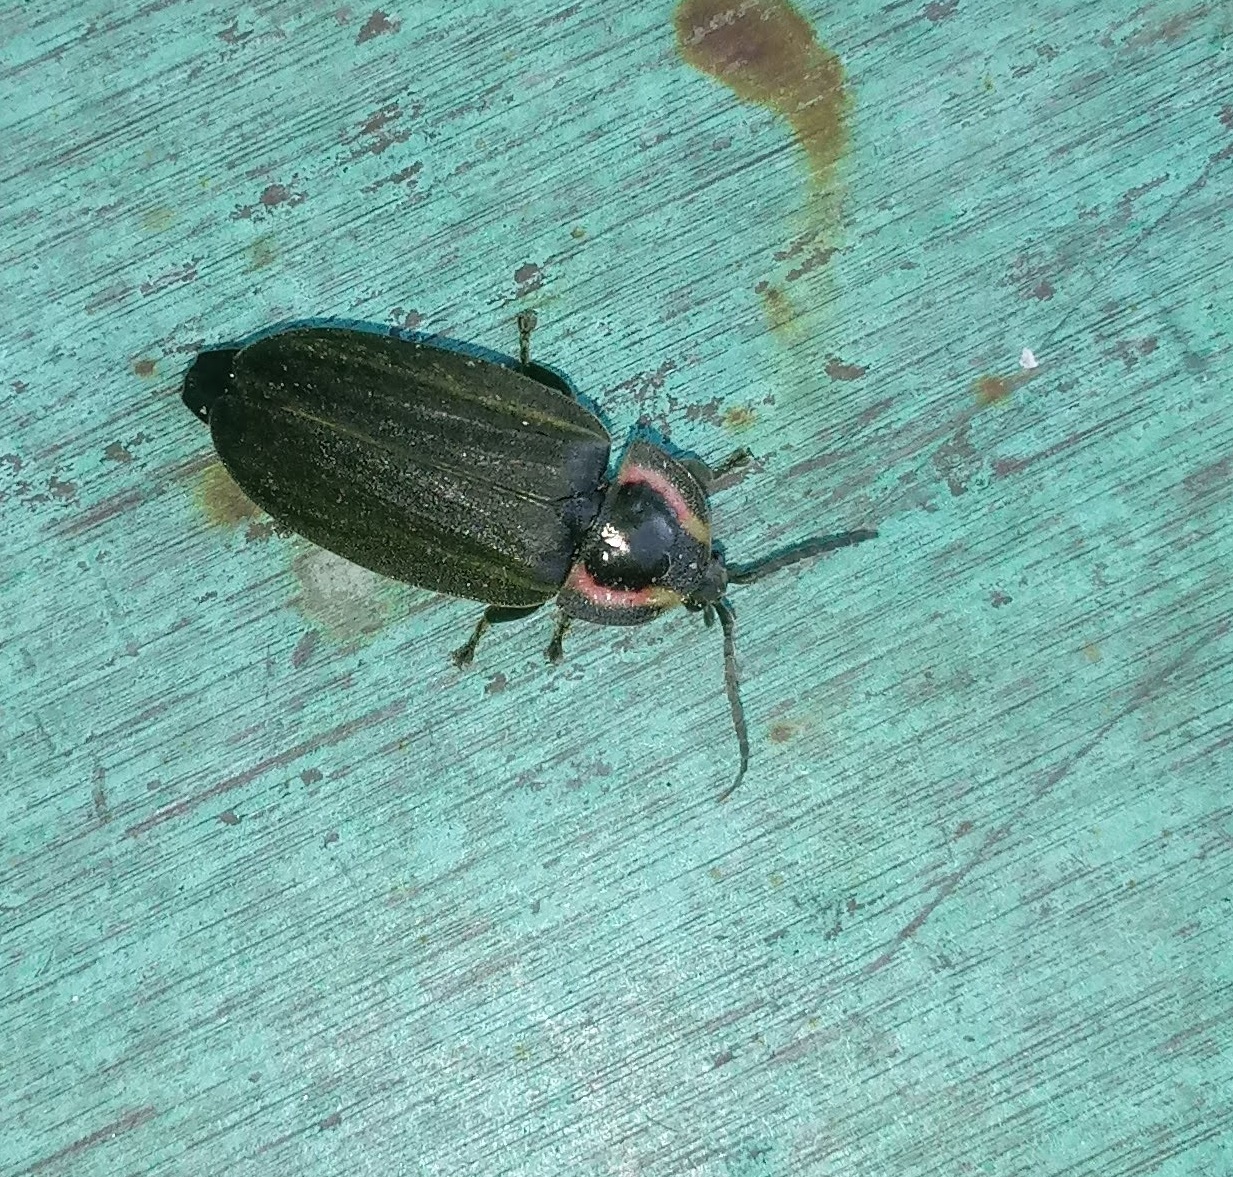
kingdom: Animalia
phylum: Arthropoda
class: Insecta
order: Coleoptera
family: Lampyridae
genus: Photinus
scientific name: Photinus corrusca
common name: Winter firefly
